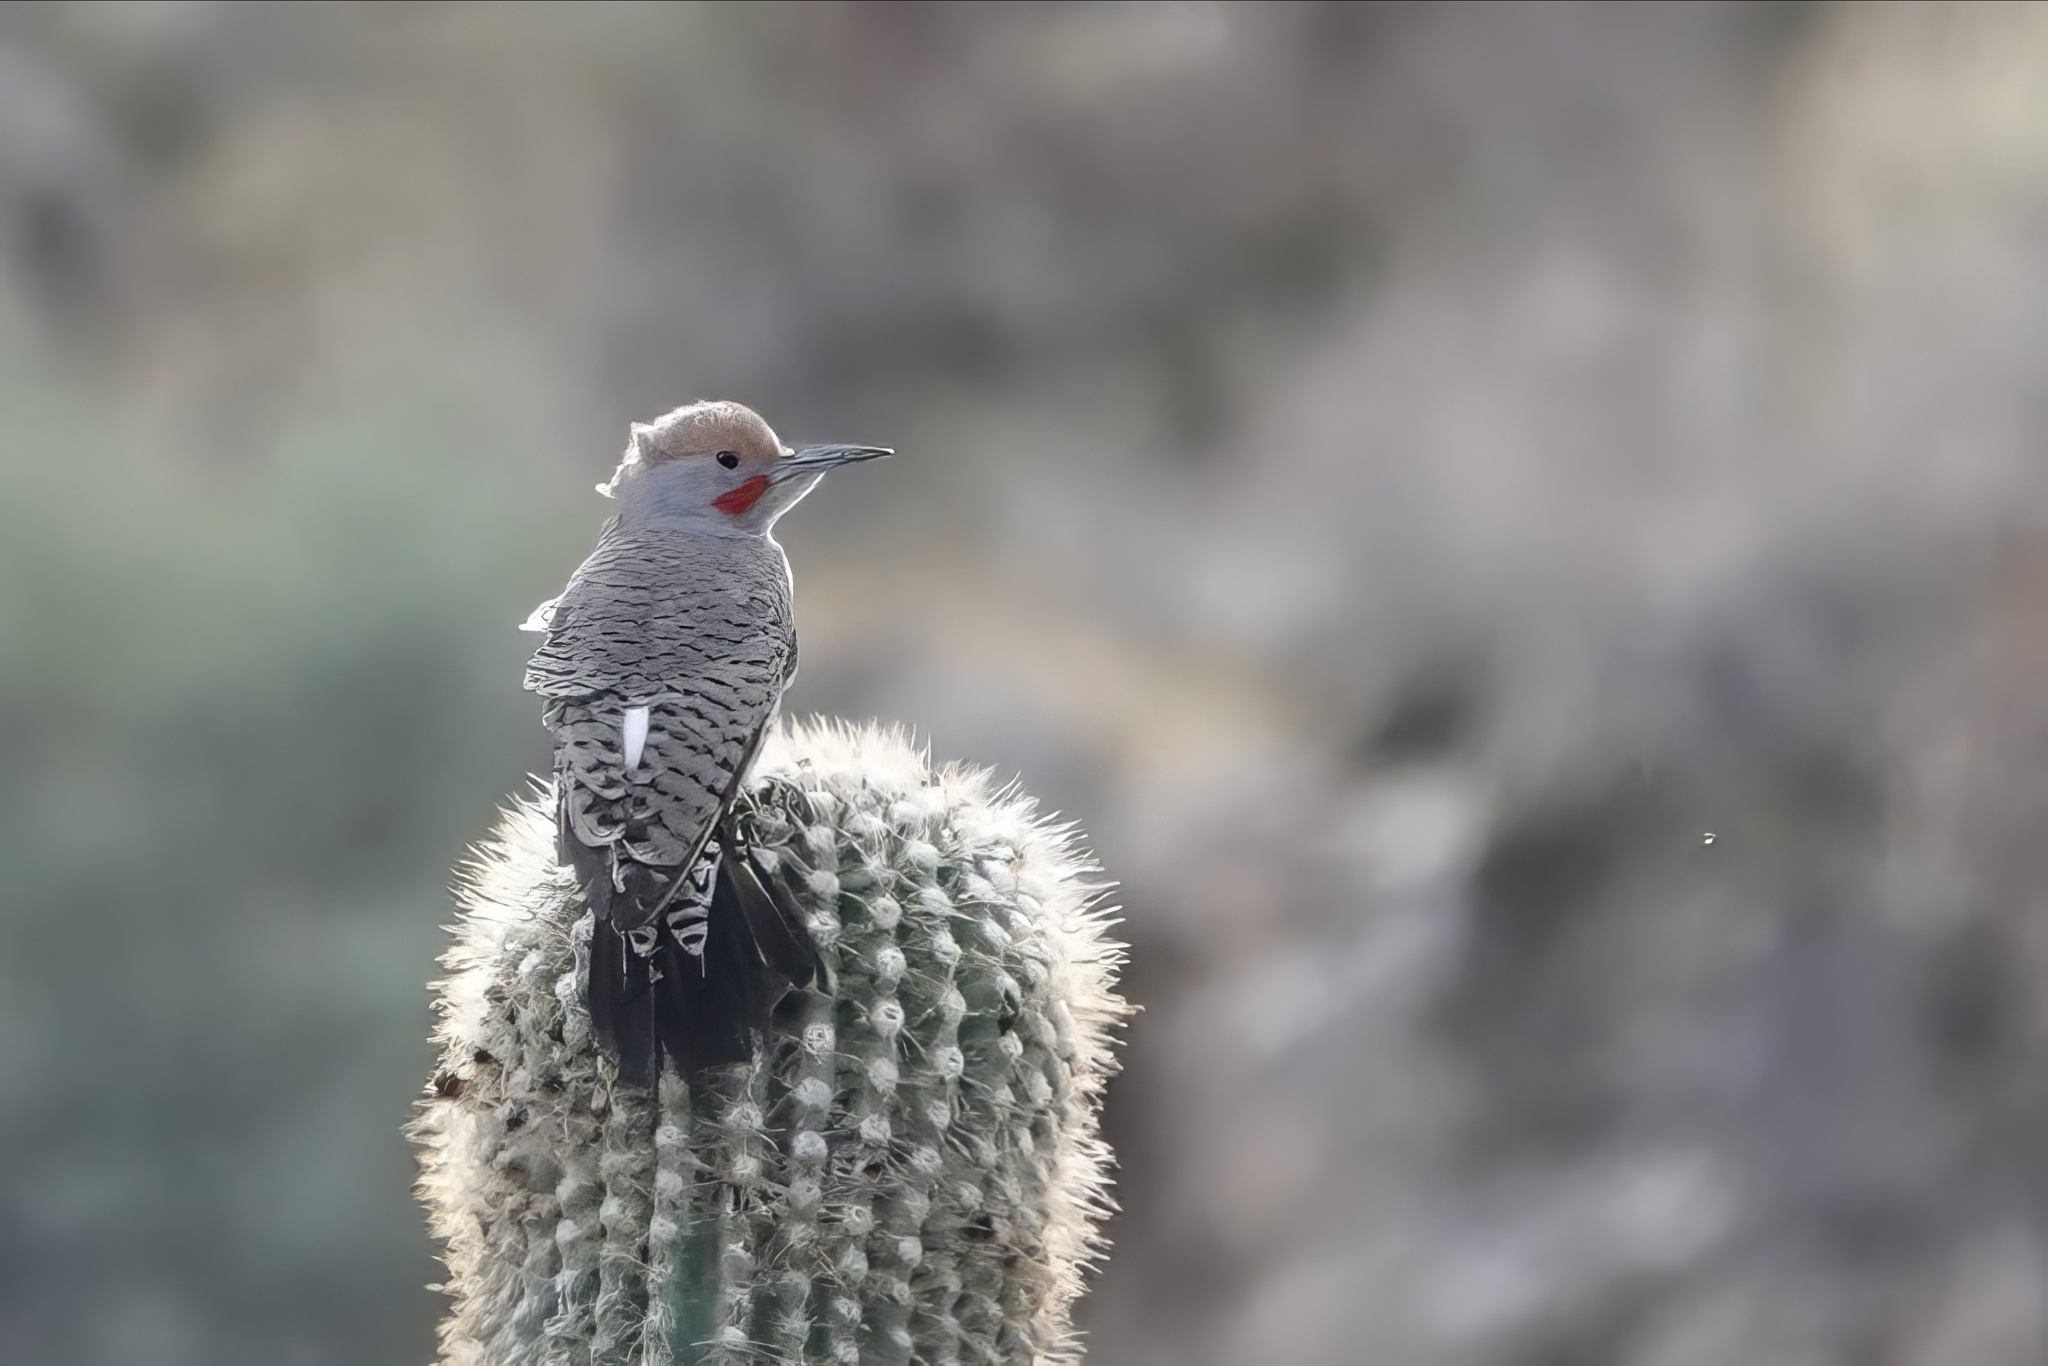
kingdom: Animalia
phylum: Chordata
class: Aves
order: Piciformes
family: Picidae
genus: Colaptes
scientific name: Colaptes chrysoides
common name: Gilded flicker
